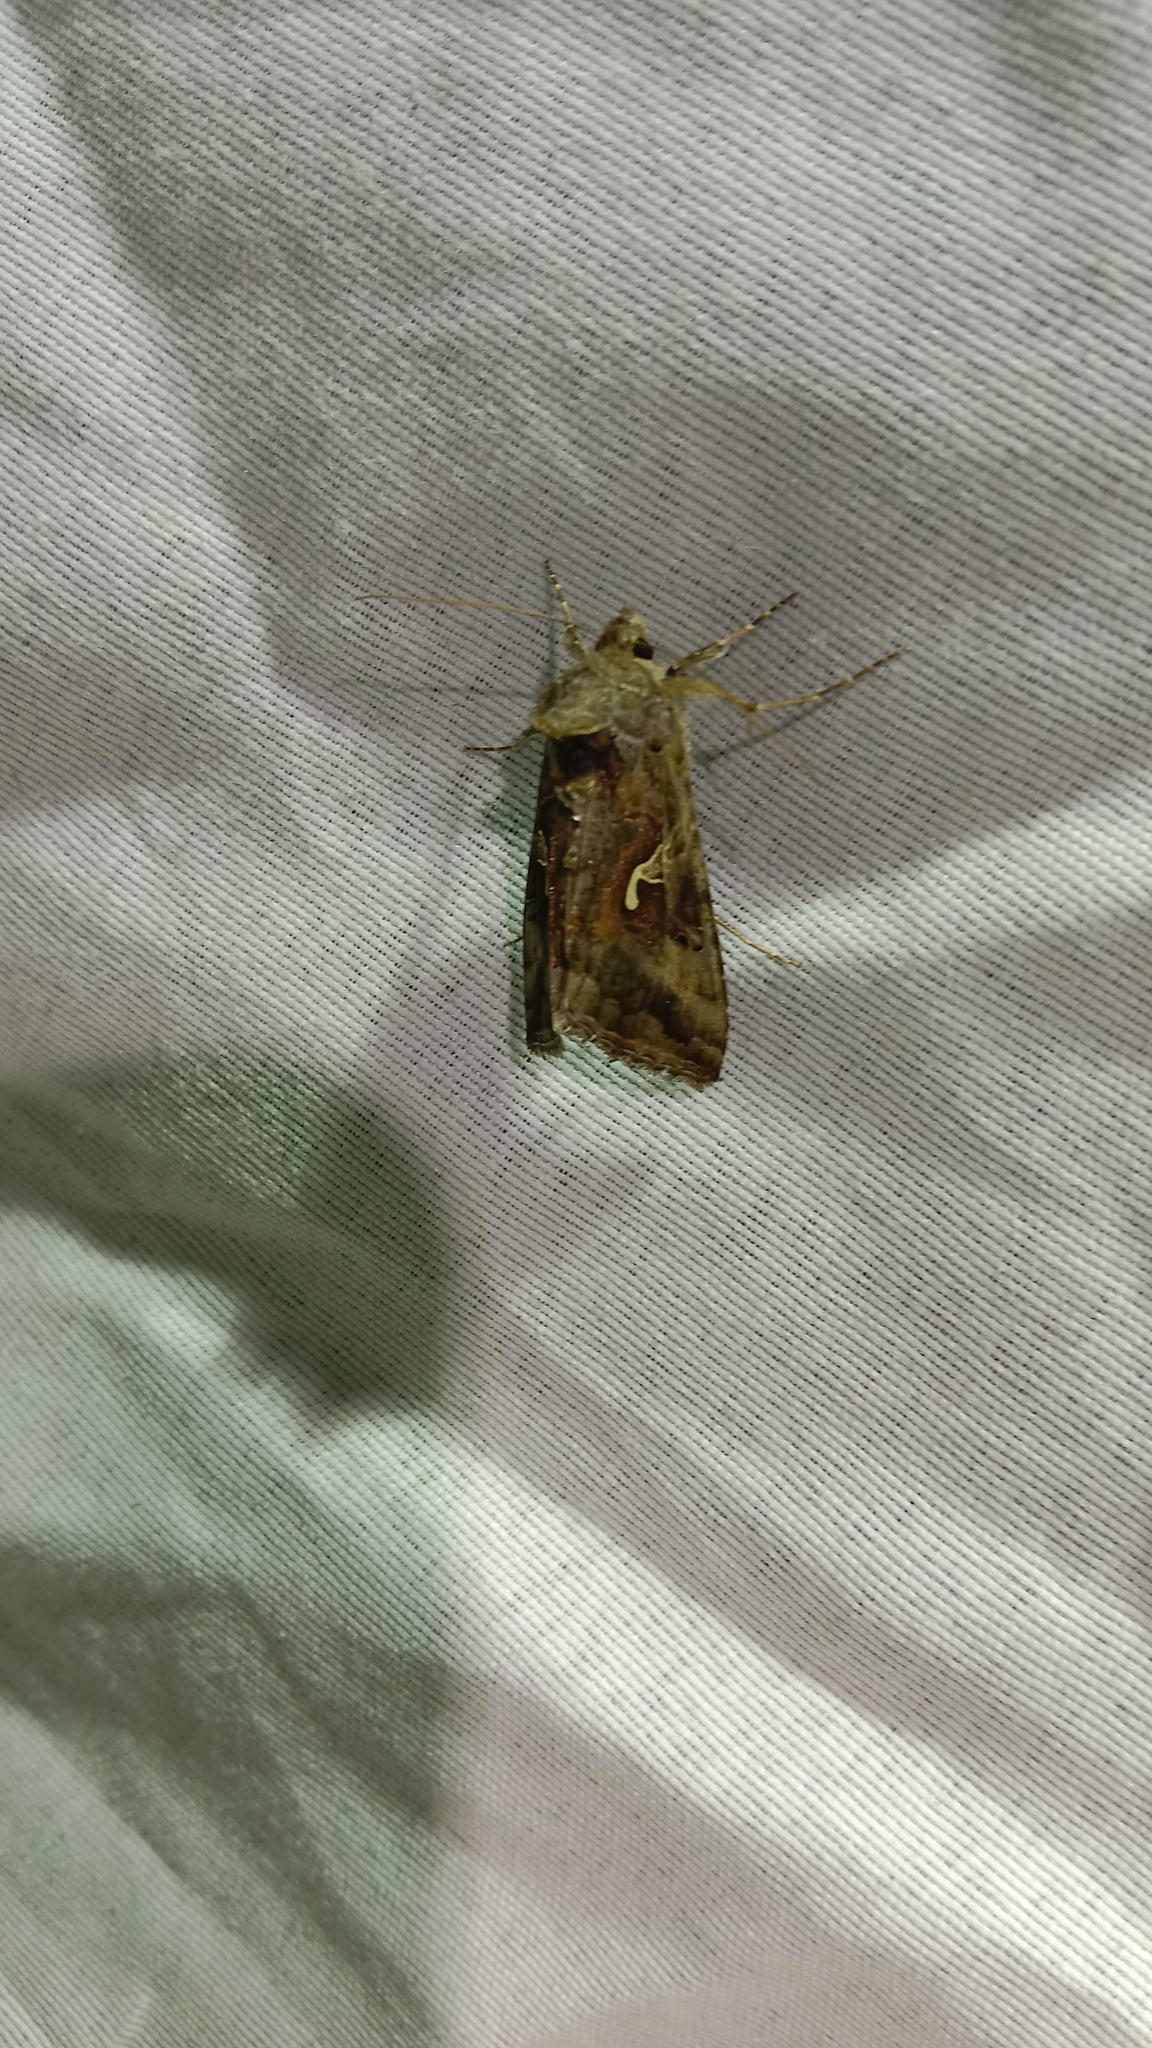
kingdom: Animalia
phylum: Arthropoda
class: Insecta
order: Lepidoptera
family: Noctuidae
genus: Autographa
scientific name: Autographa gamma
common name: Silver y
